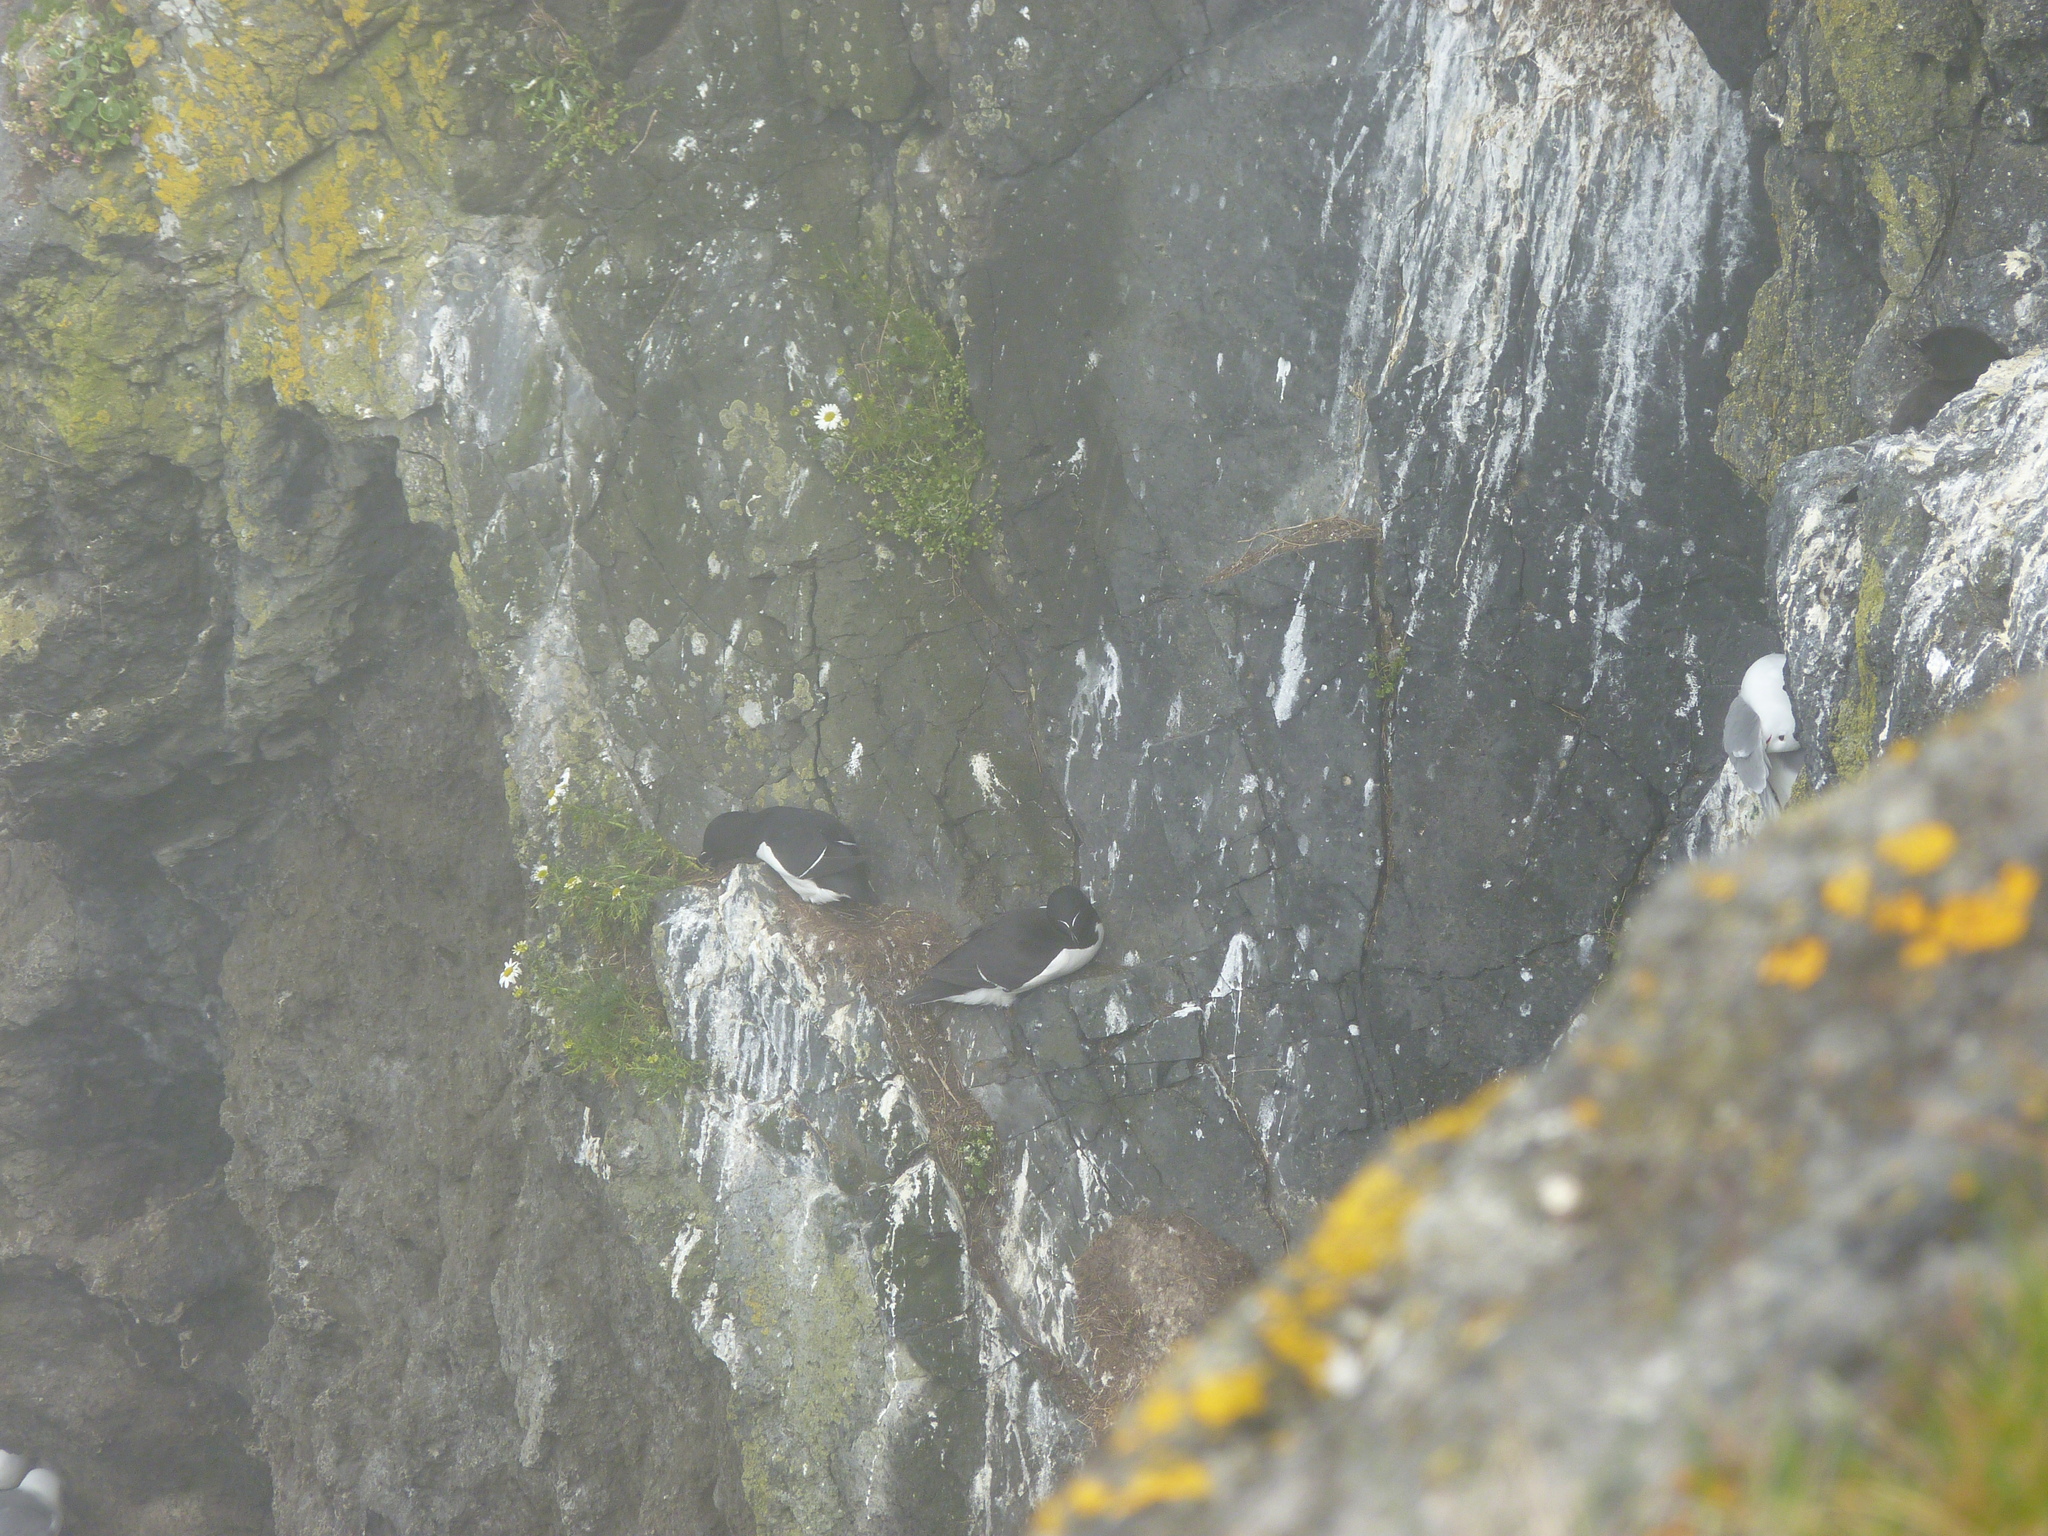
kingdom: Animalia
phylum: Chordata
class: Aves
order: Charadriiformes
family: Alcidae
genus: Alca
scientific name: Alca torda
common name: Razorbill
